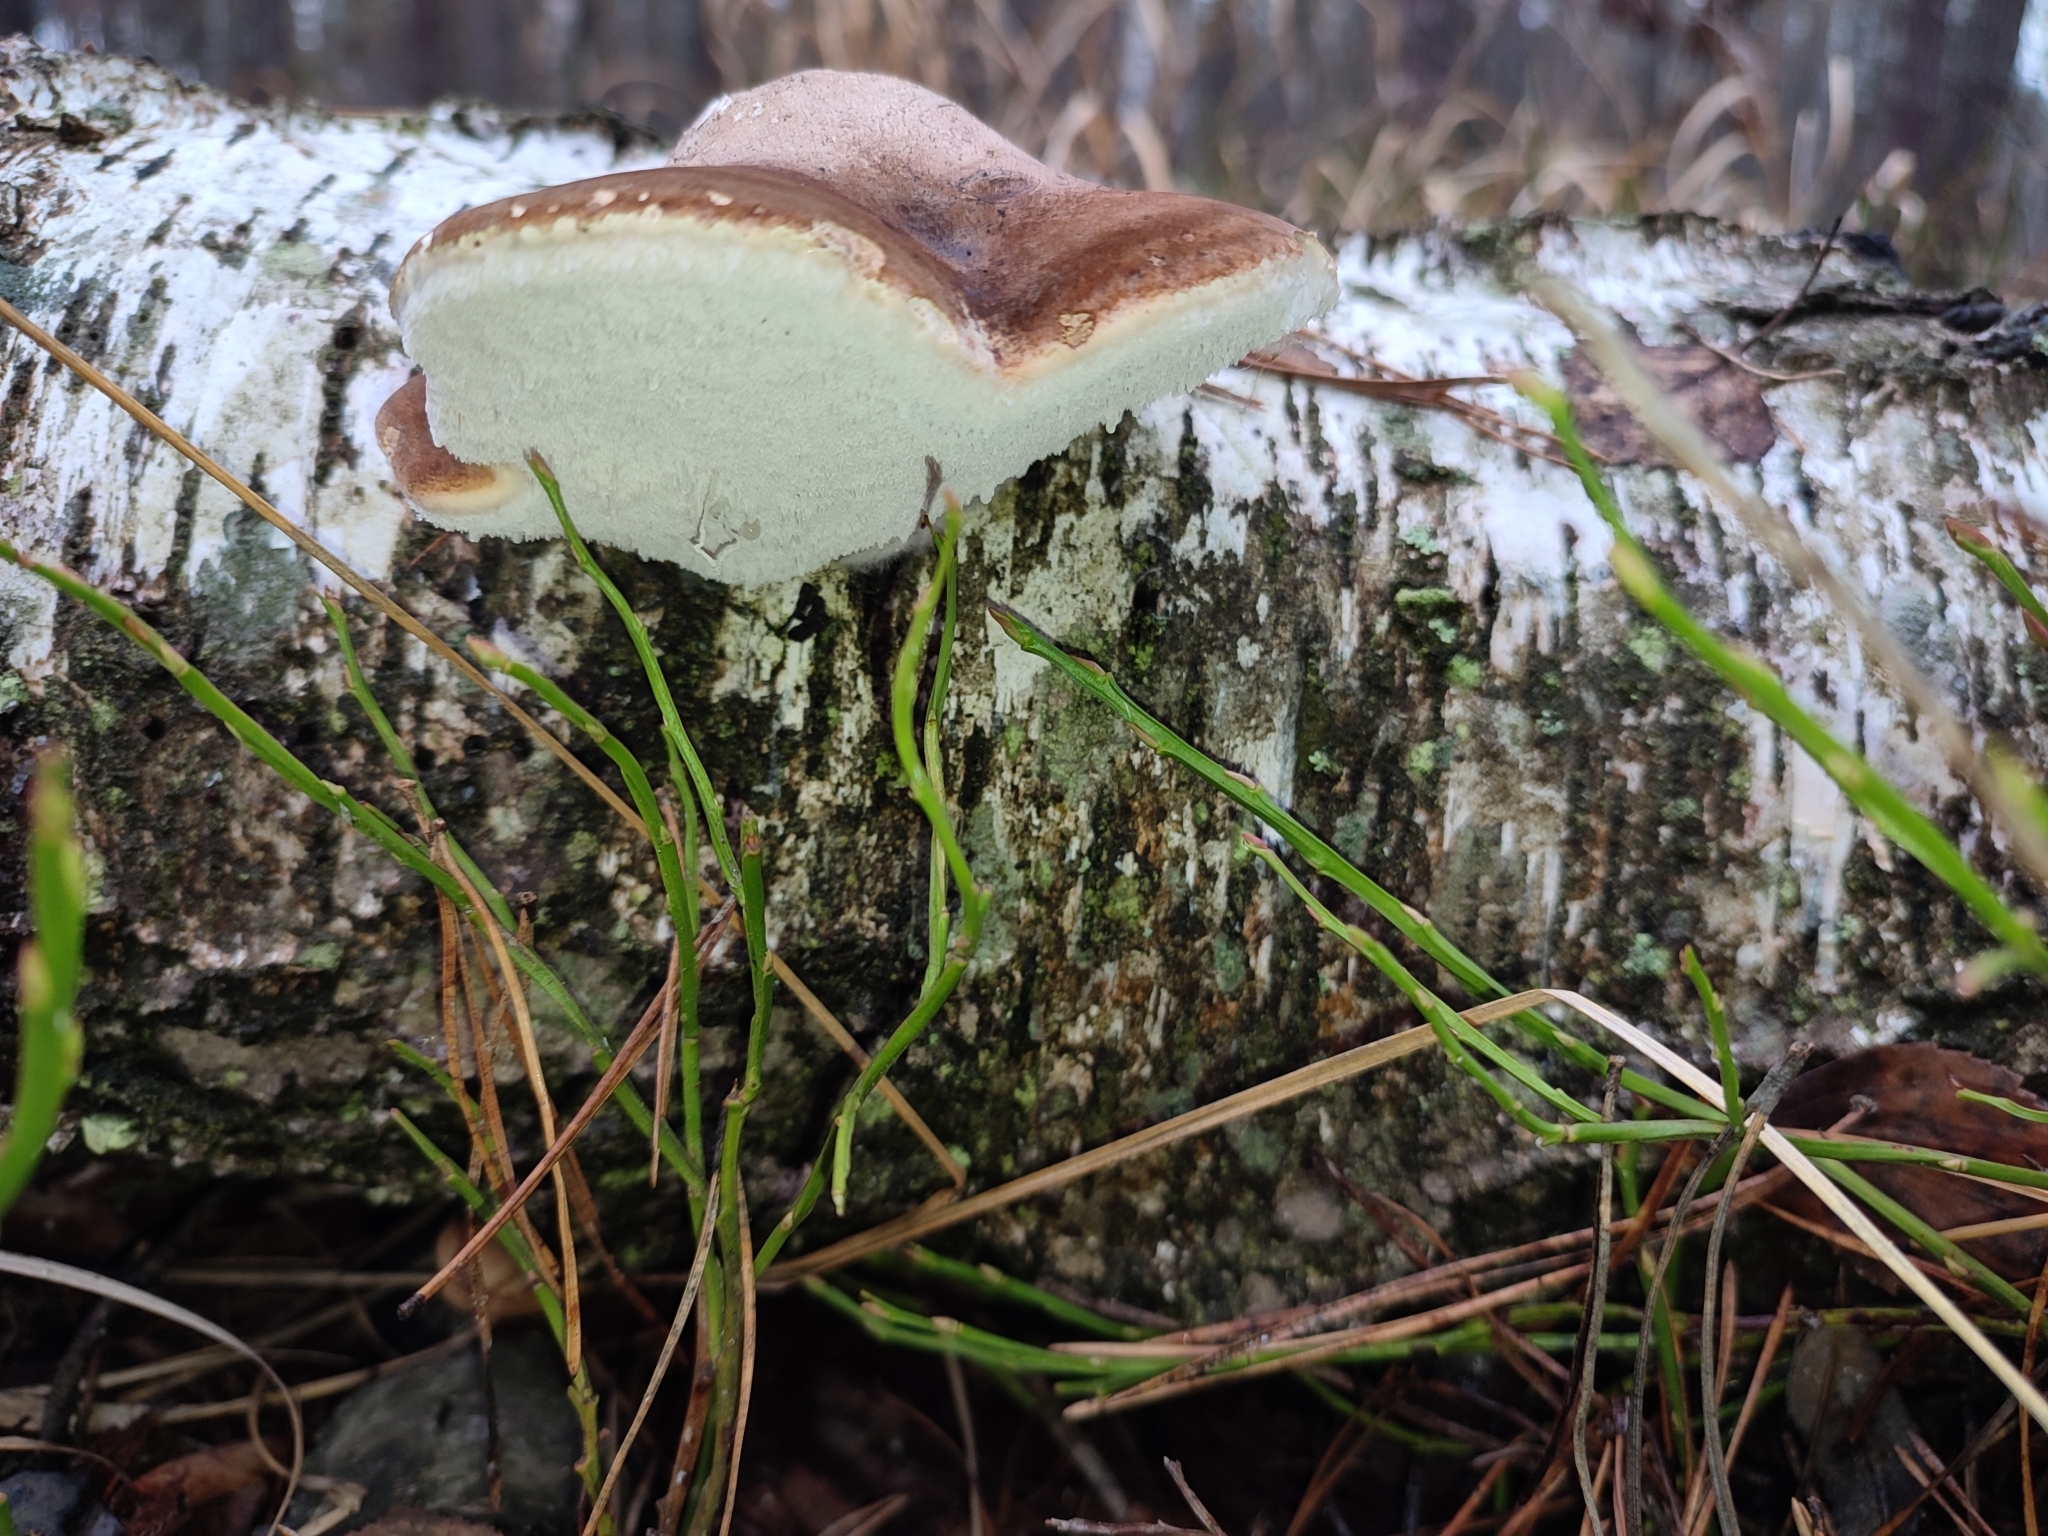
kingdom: Fungi
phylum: Basidiomycota
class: Agaricomycetes
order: Polyporales
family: Fomitopsidaceae
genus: Fomitopsis
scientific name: Fomitopsis betulina
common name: Birch polypore
